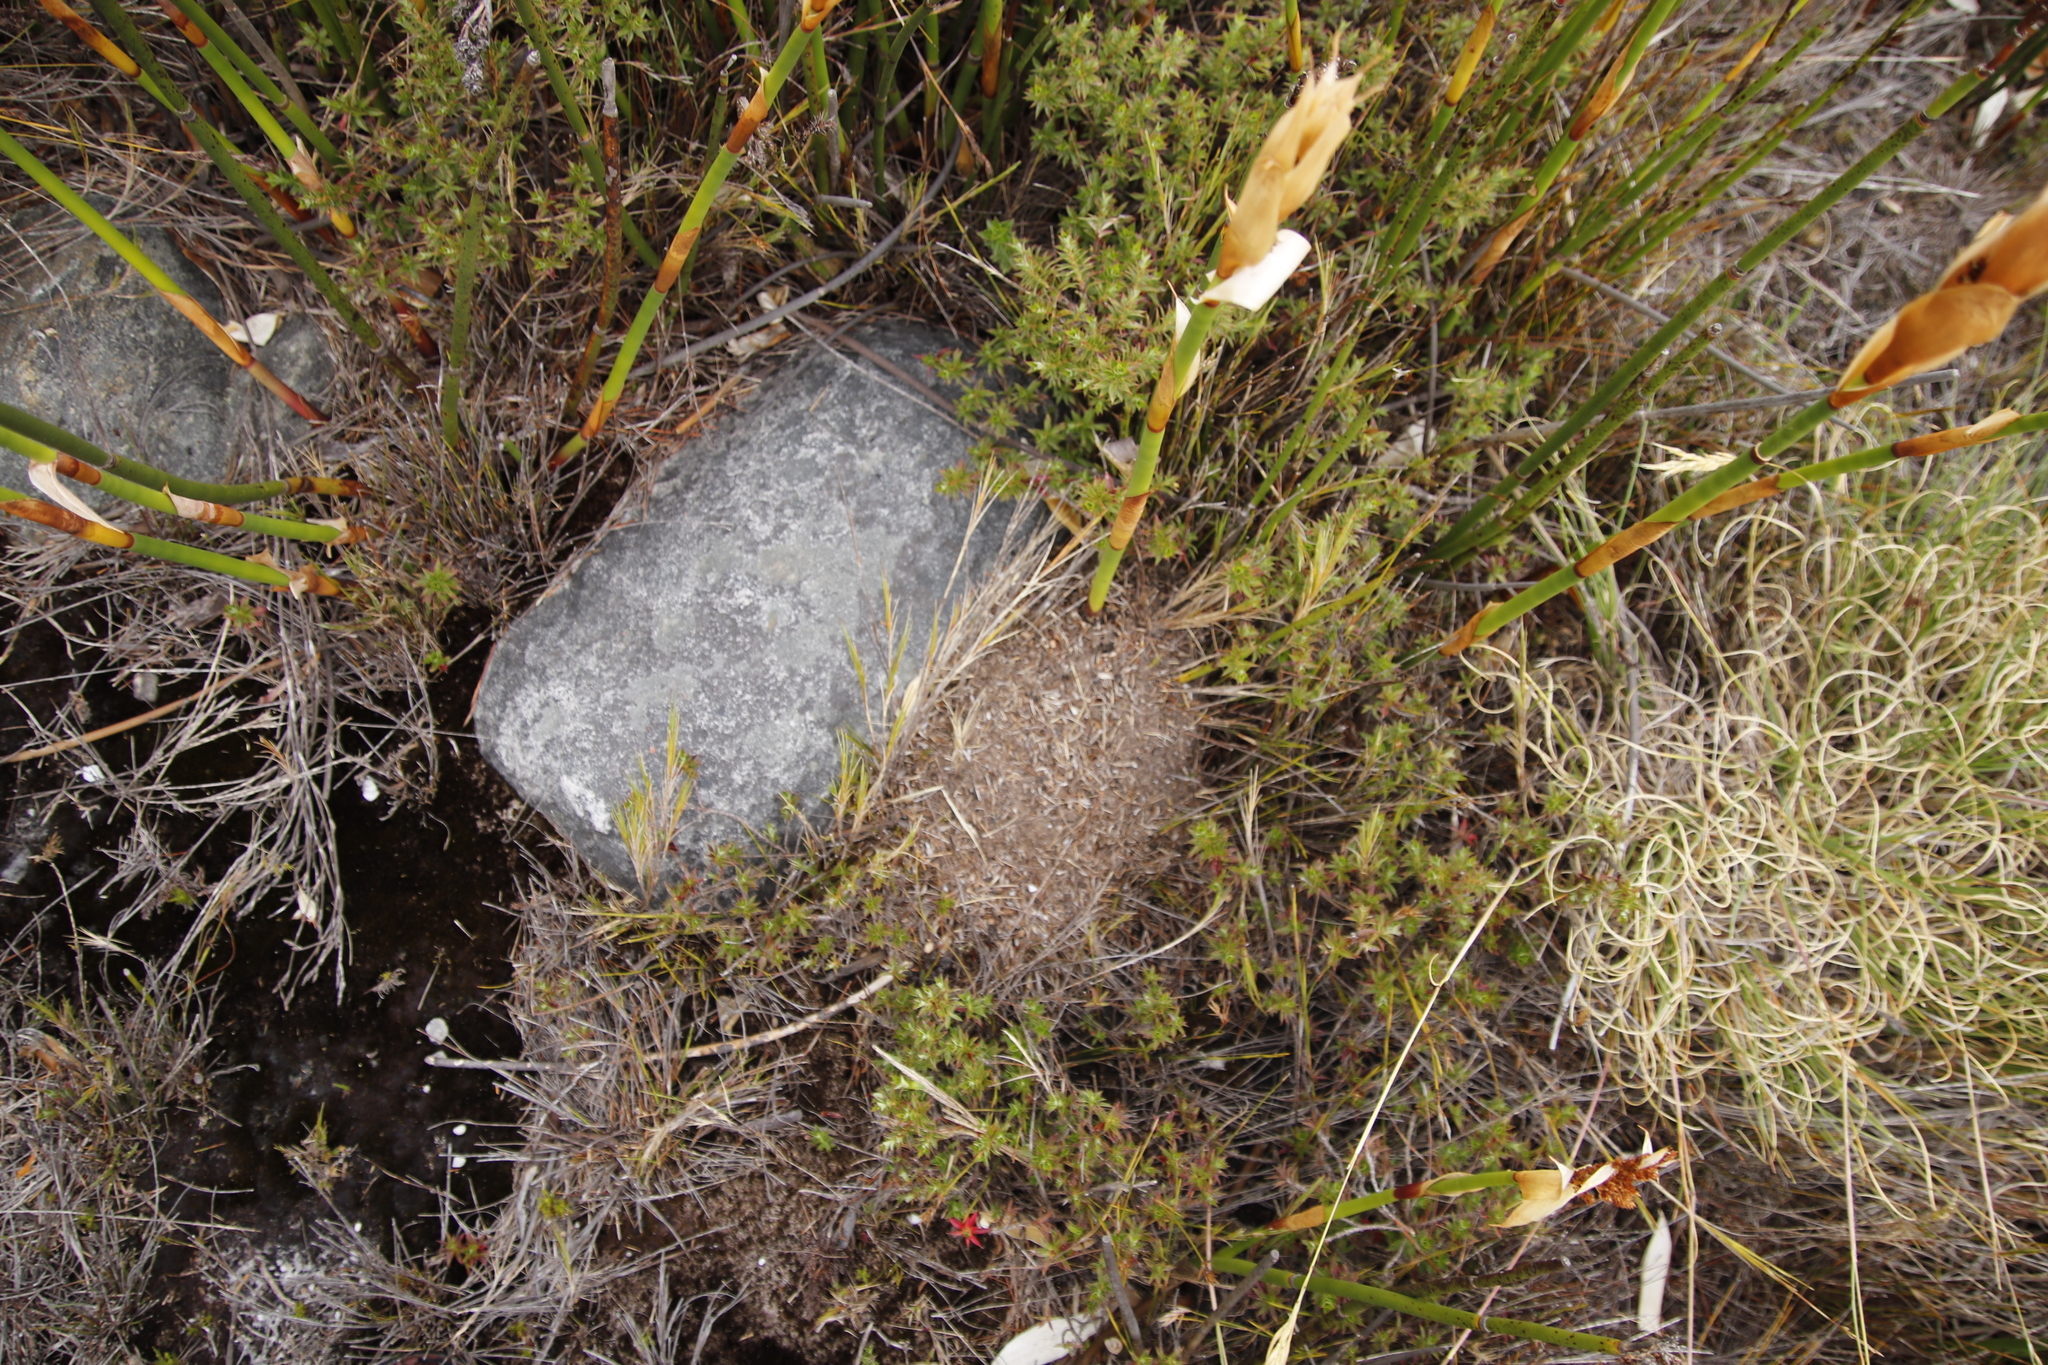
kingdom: Animalia
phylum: Arthropoda
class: Insecta
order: Hymenoptera
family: Formicidae
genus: Myrmicaria
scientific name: Myrmicaria nigra
